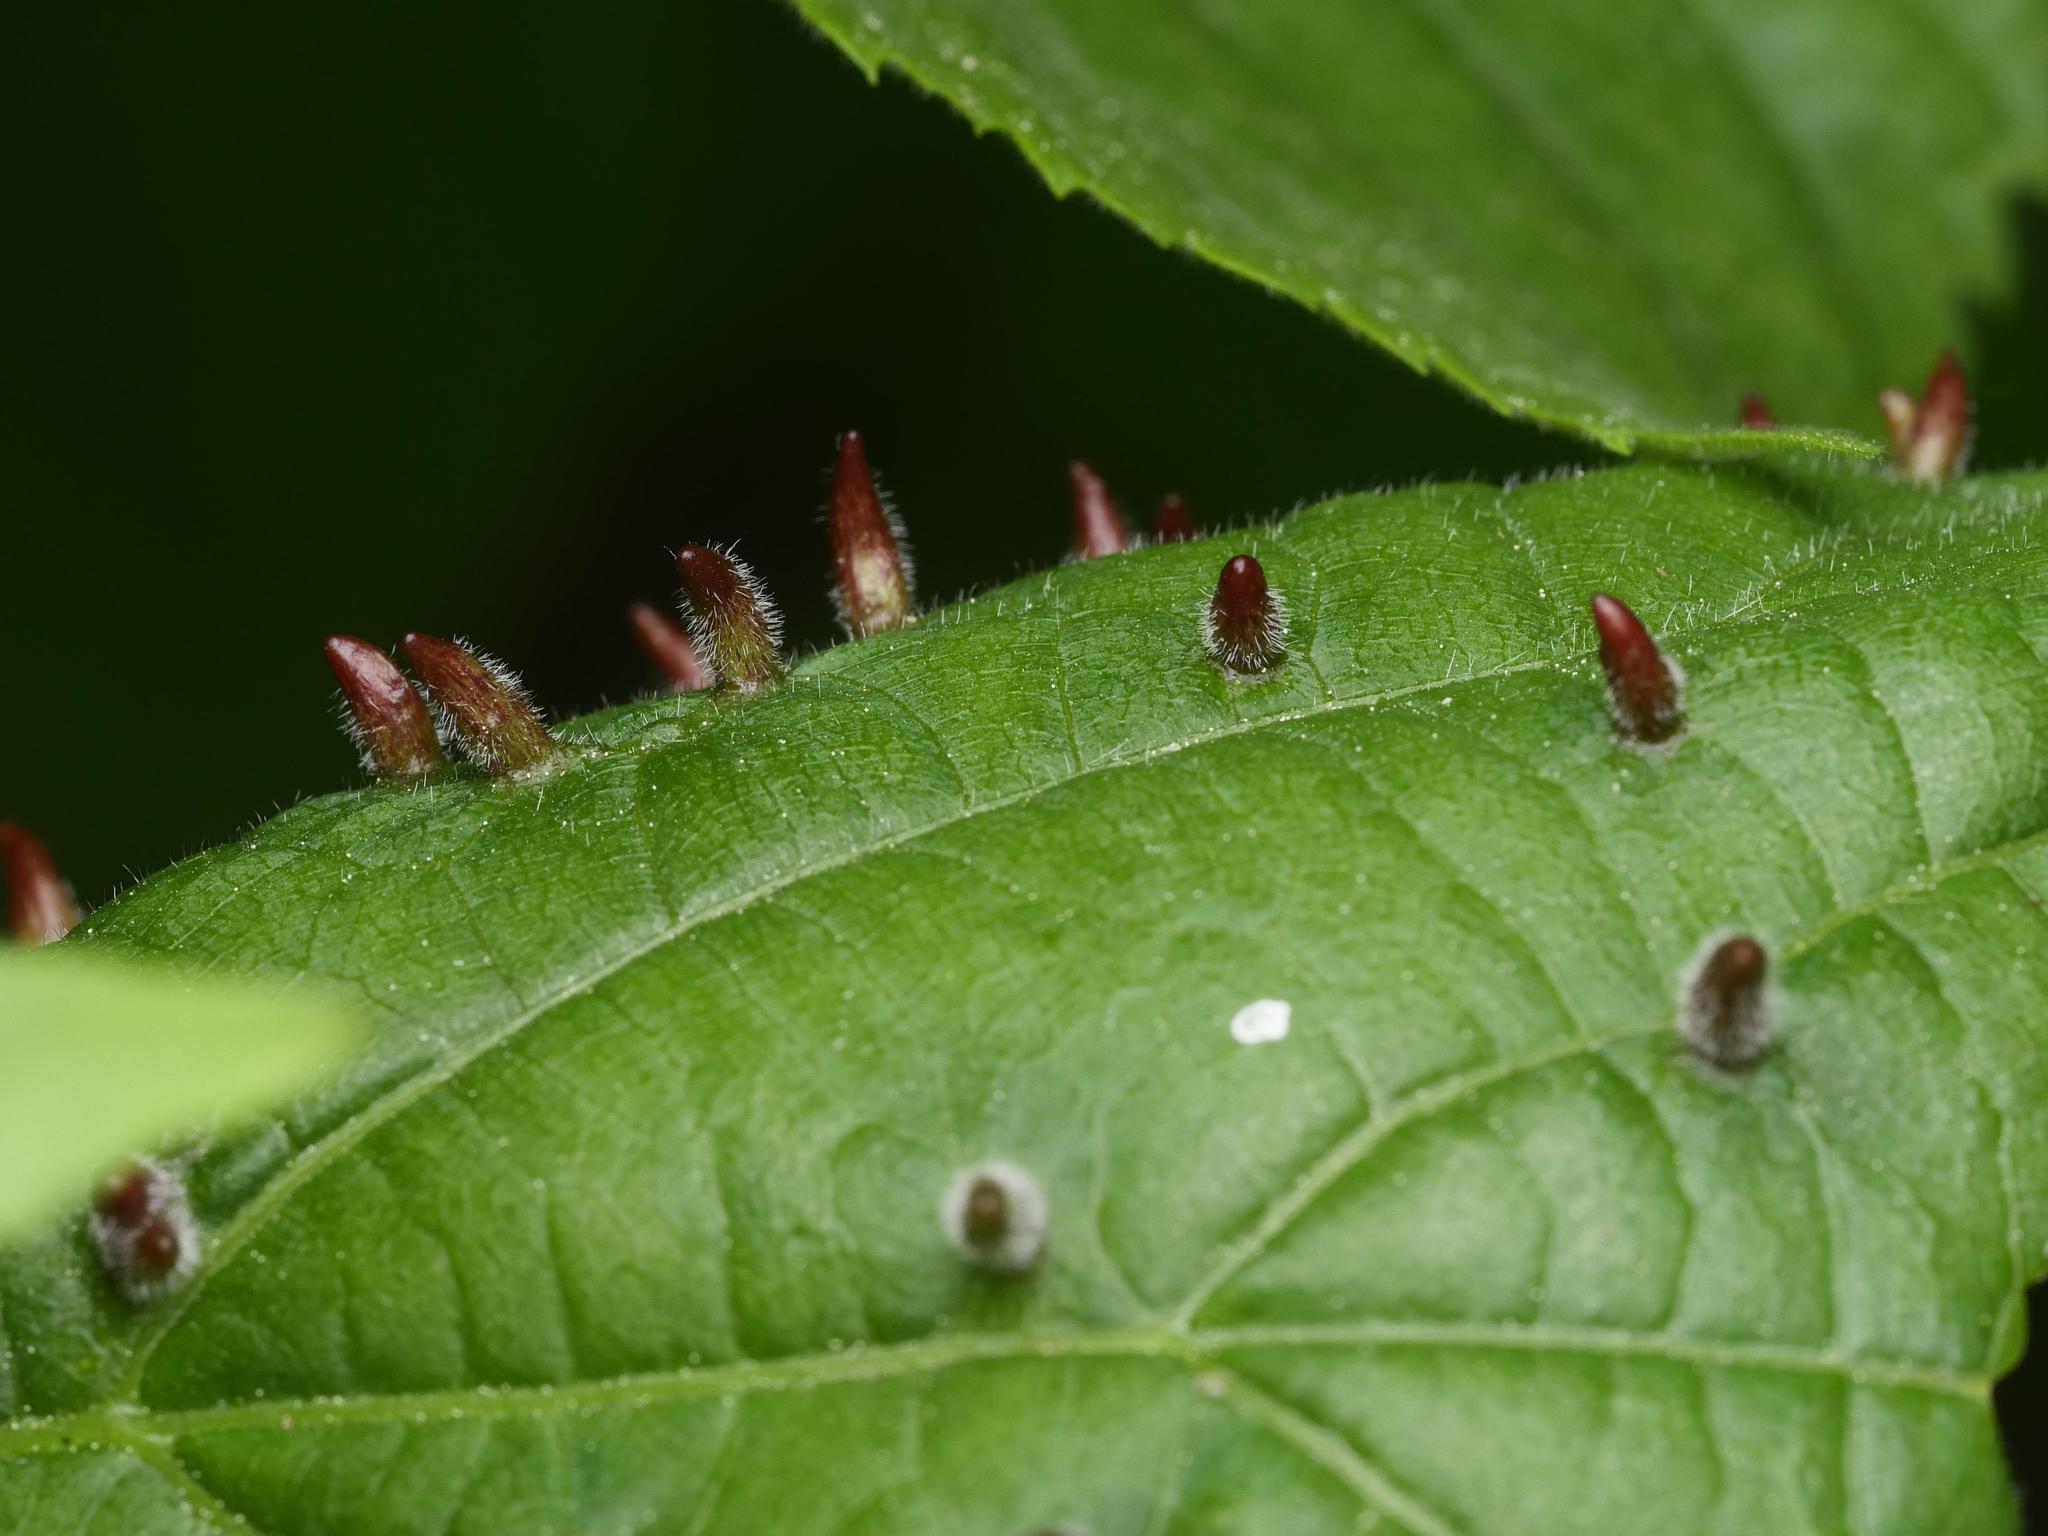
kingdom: Animalia
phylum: Arthropoda
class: Arachnida
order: Trombidiformes
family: Eriophyidae
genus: Eriophyes
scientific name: Eriophyes tiliae
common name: Red nail gall mite
